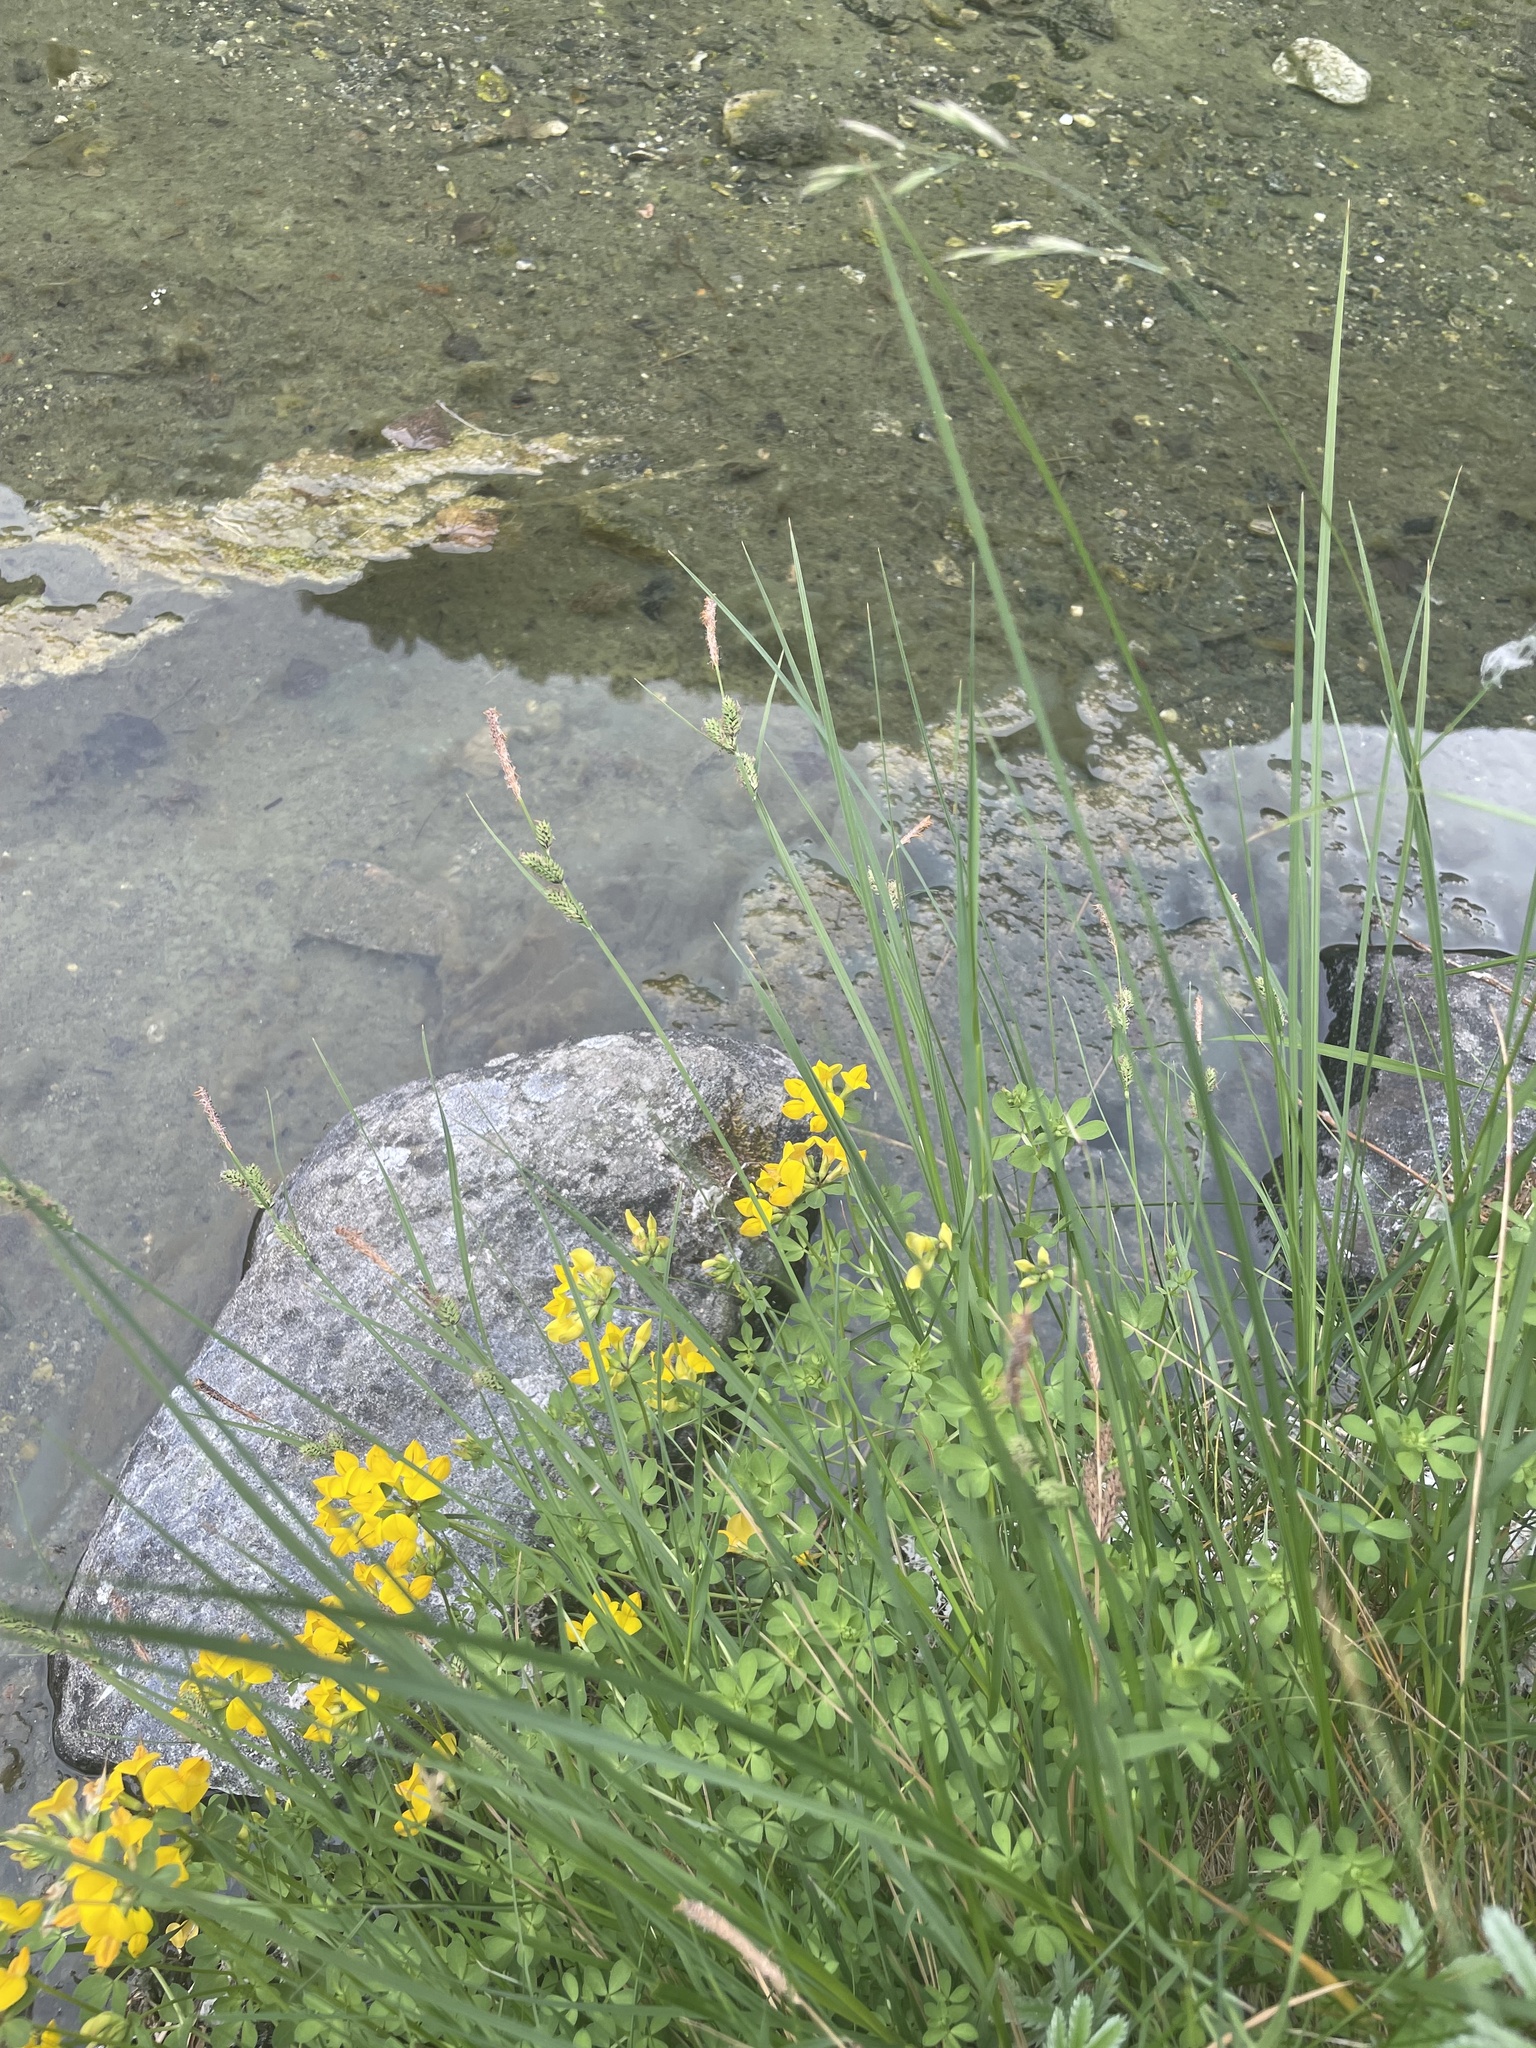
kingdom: Plantae
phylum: Tracheophyta
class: Liliopsida
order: Poales
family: Cyperaceae
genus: Carex
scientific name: Carex nigra
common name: Common sedge
